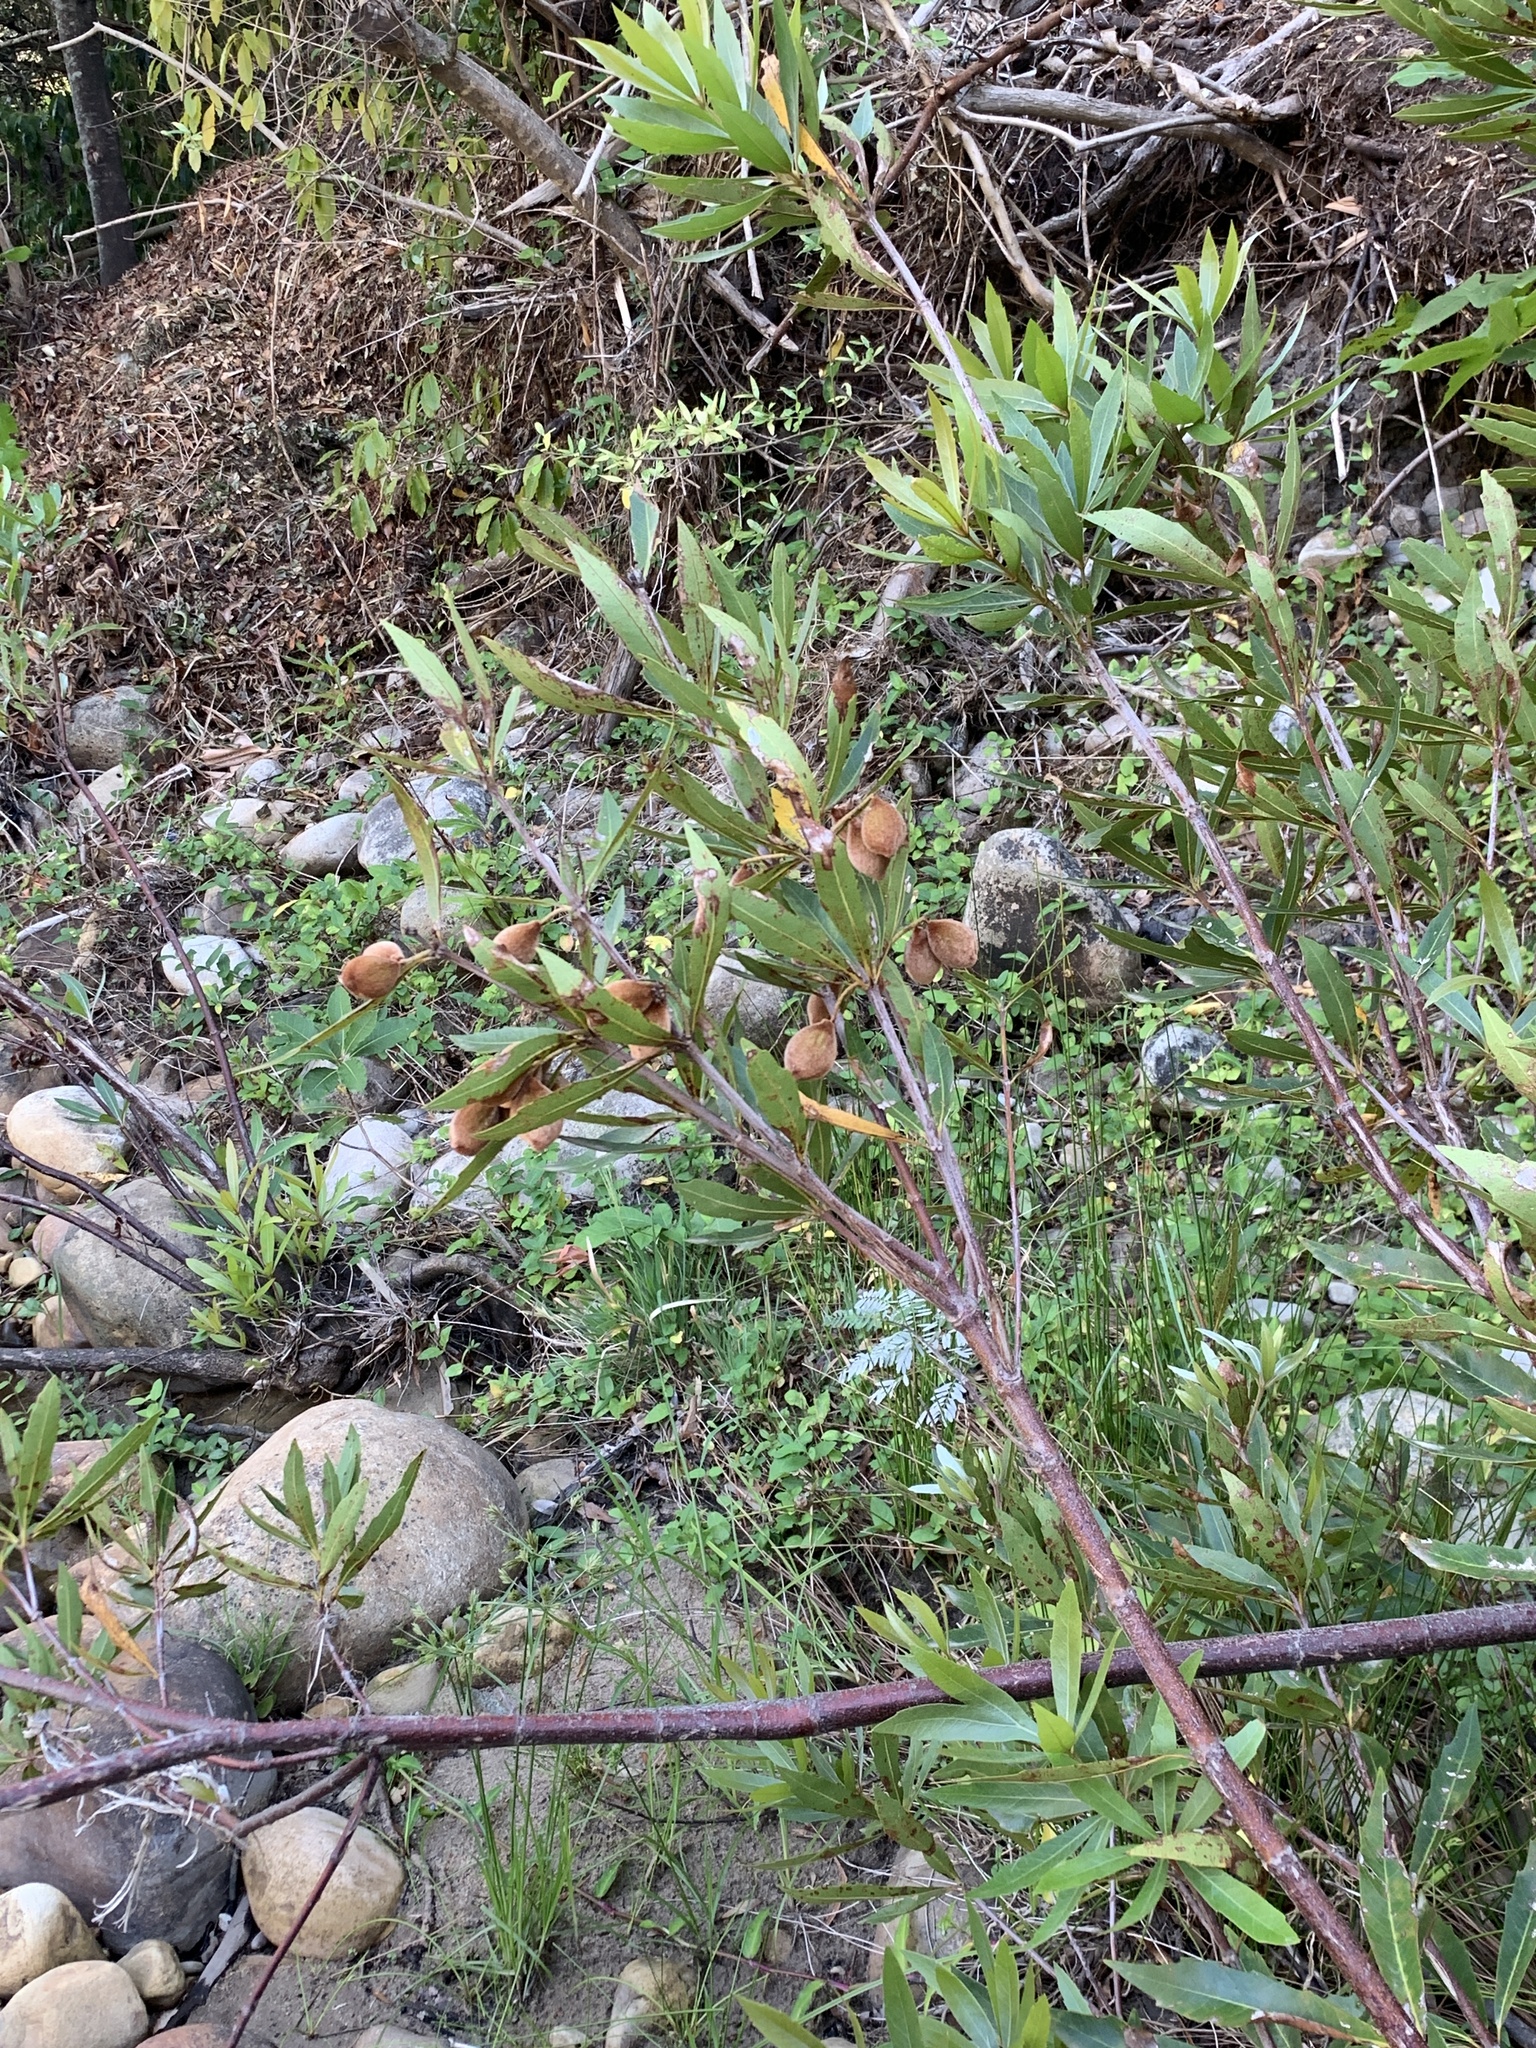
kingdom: Plantae
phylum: Tracheophyta
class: Magnoliopsida
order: Proteales
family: Proteaceae
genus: Brabejum
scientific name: Brabejum stellatifolium
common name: Wild almond
